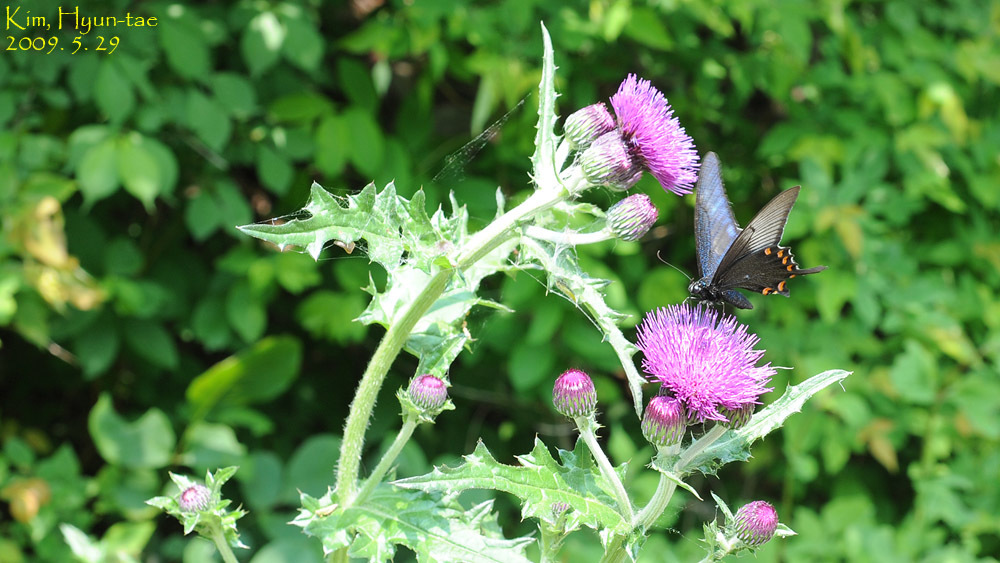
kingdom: Animalia
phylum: Arthropoda
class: Insecta
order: Lepidoptera
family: Papilionidae
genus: Papilio
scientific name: Papilio dehaanii
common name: Japanese peacock swallowtail
